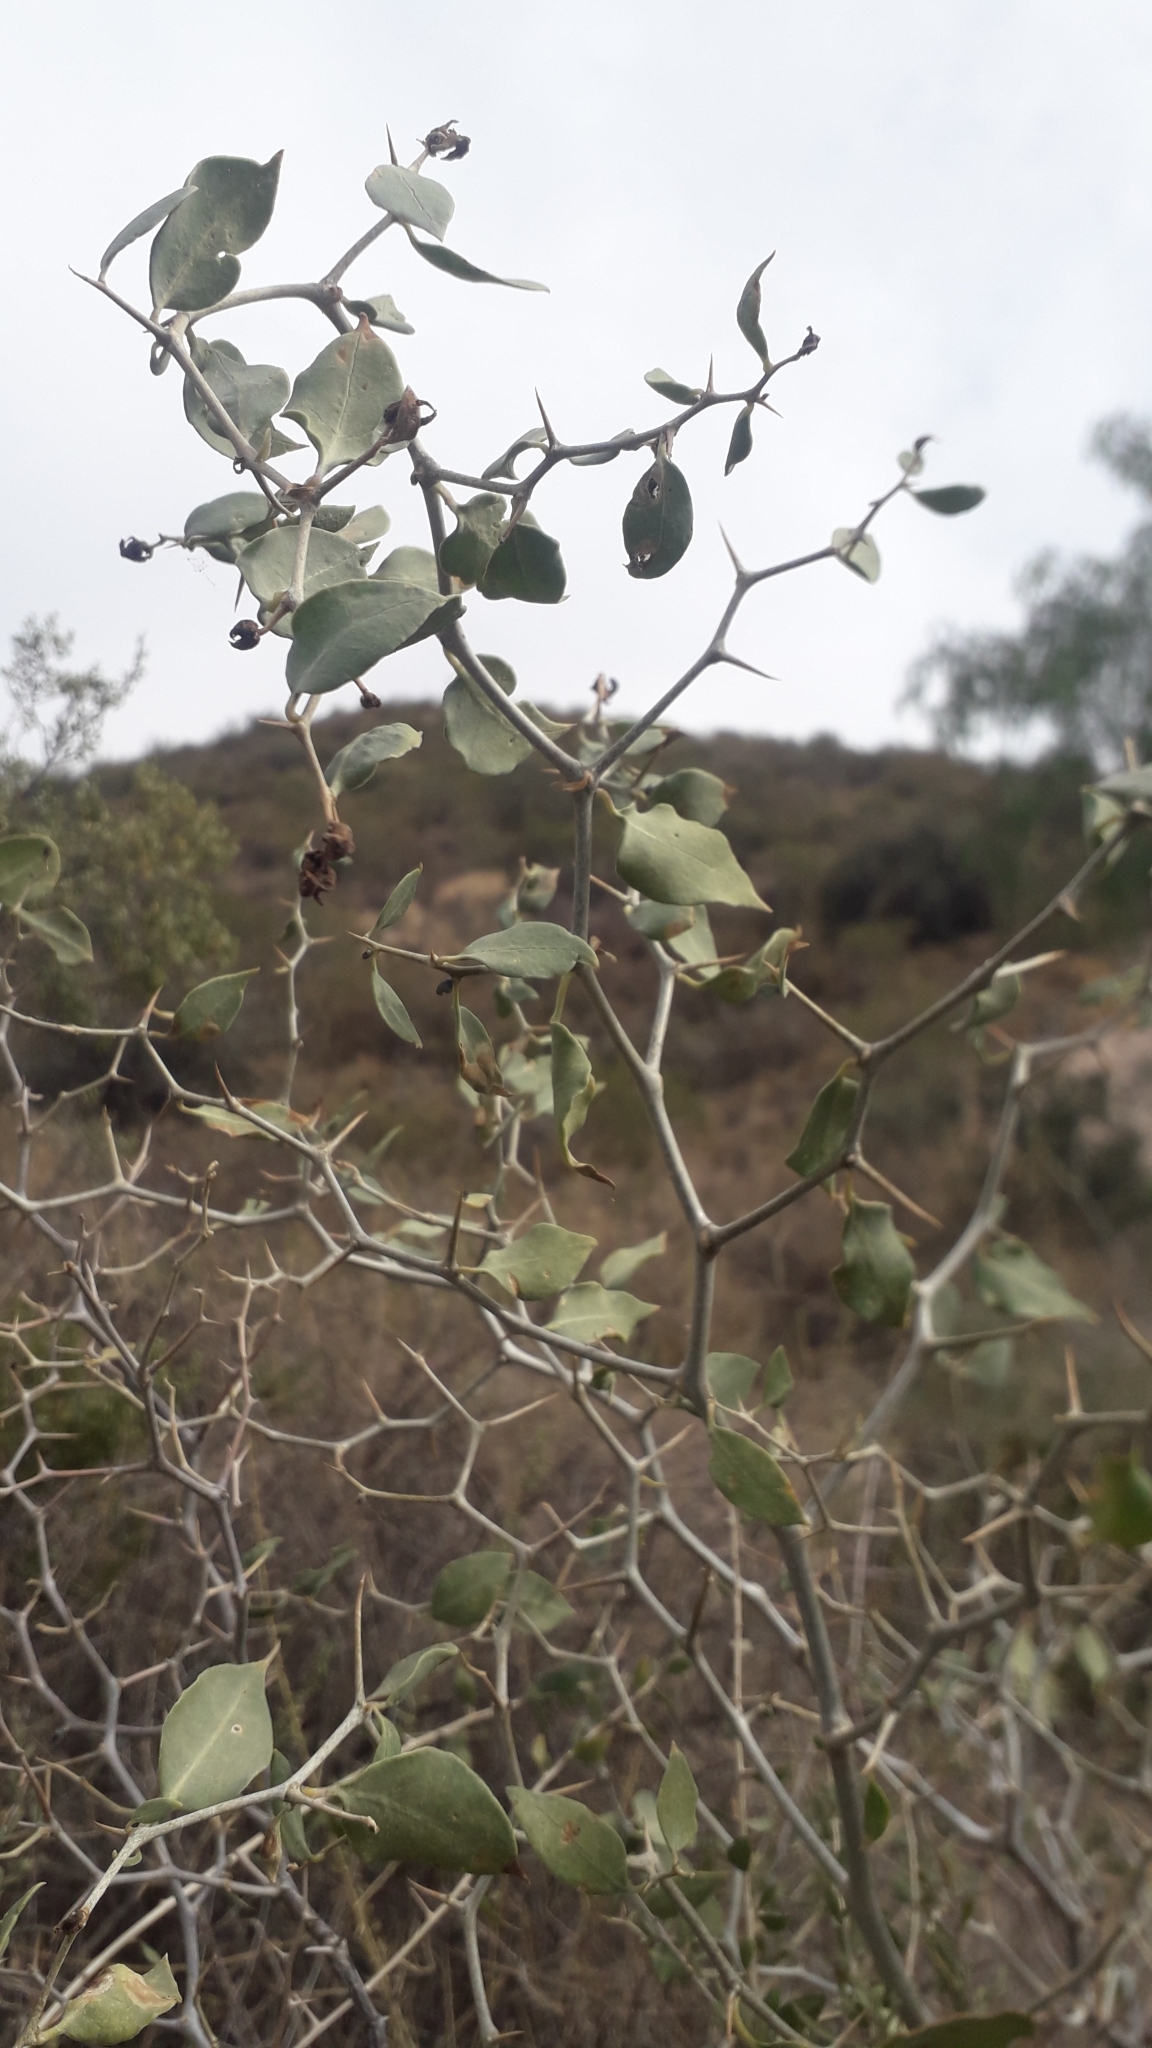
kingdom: Plantae
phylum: Tracheophyta
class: Magnoliopsida
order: Solanales
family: Solanaceae
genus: Lycium
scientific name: Lycium boerhaaviifolium
